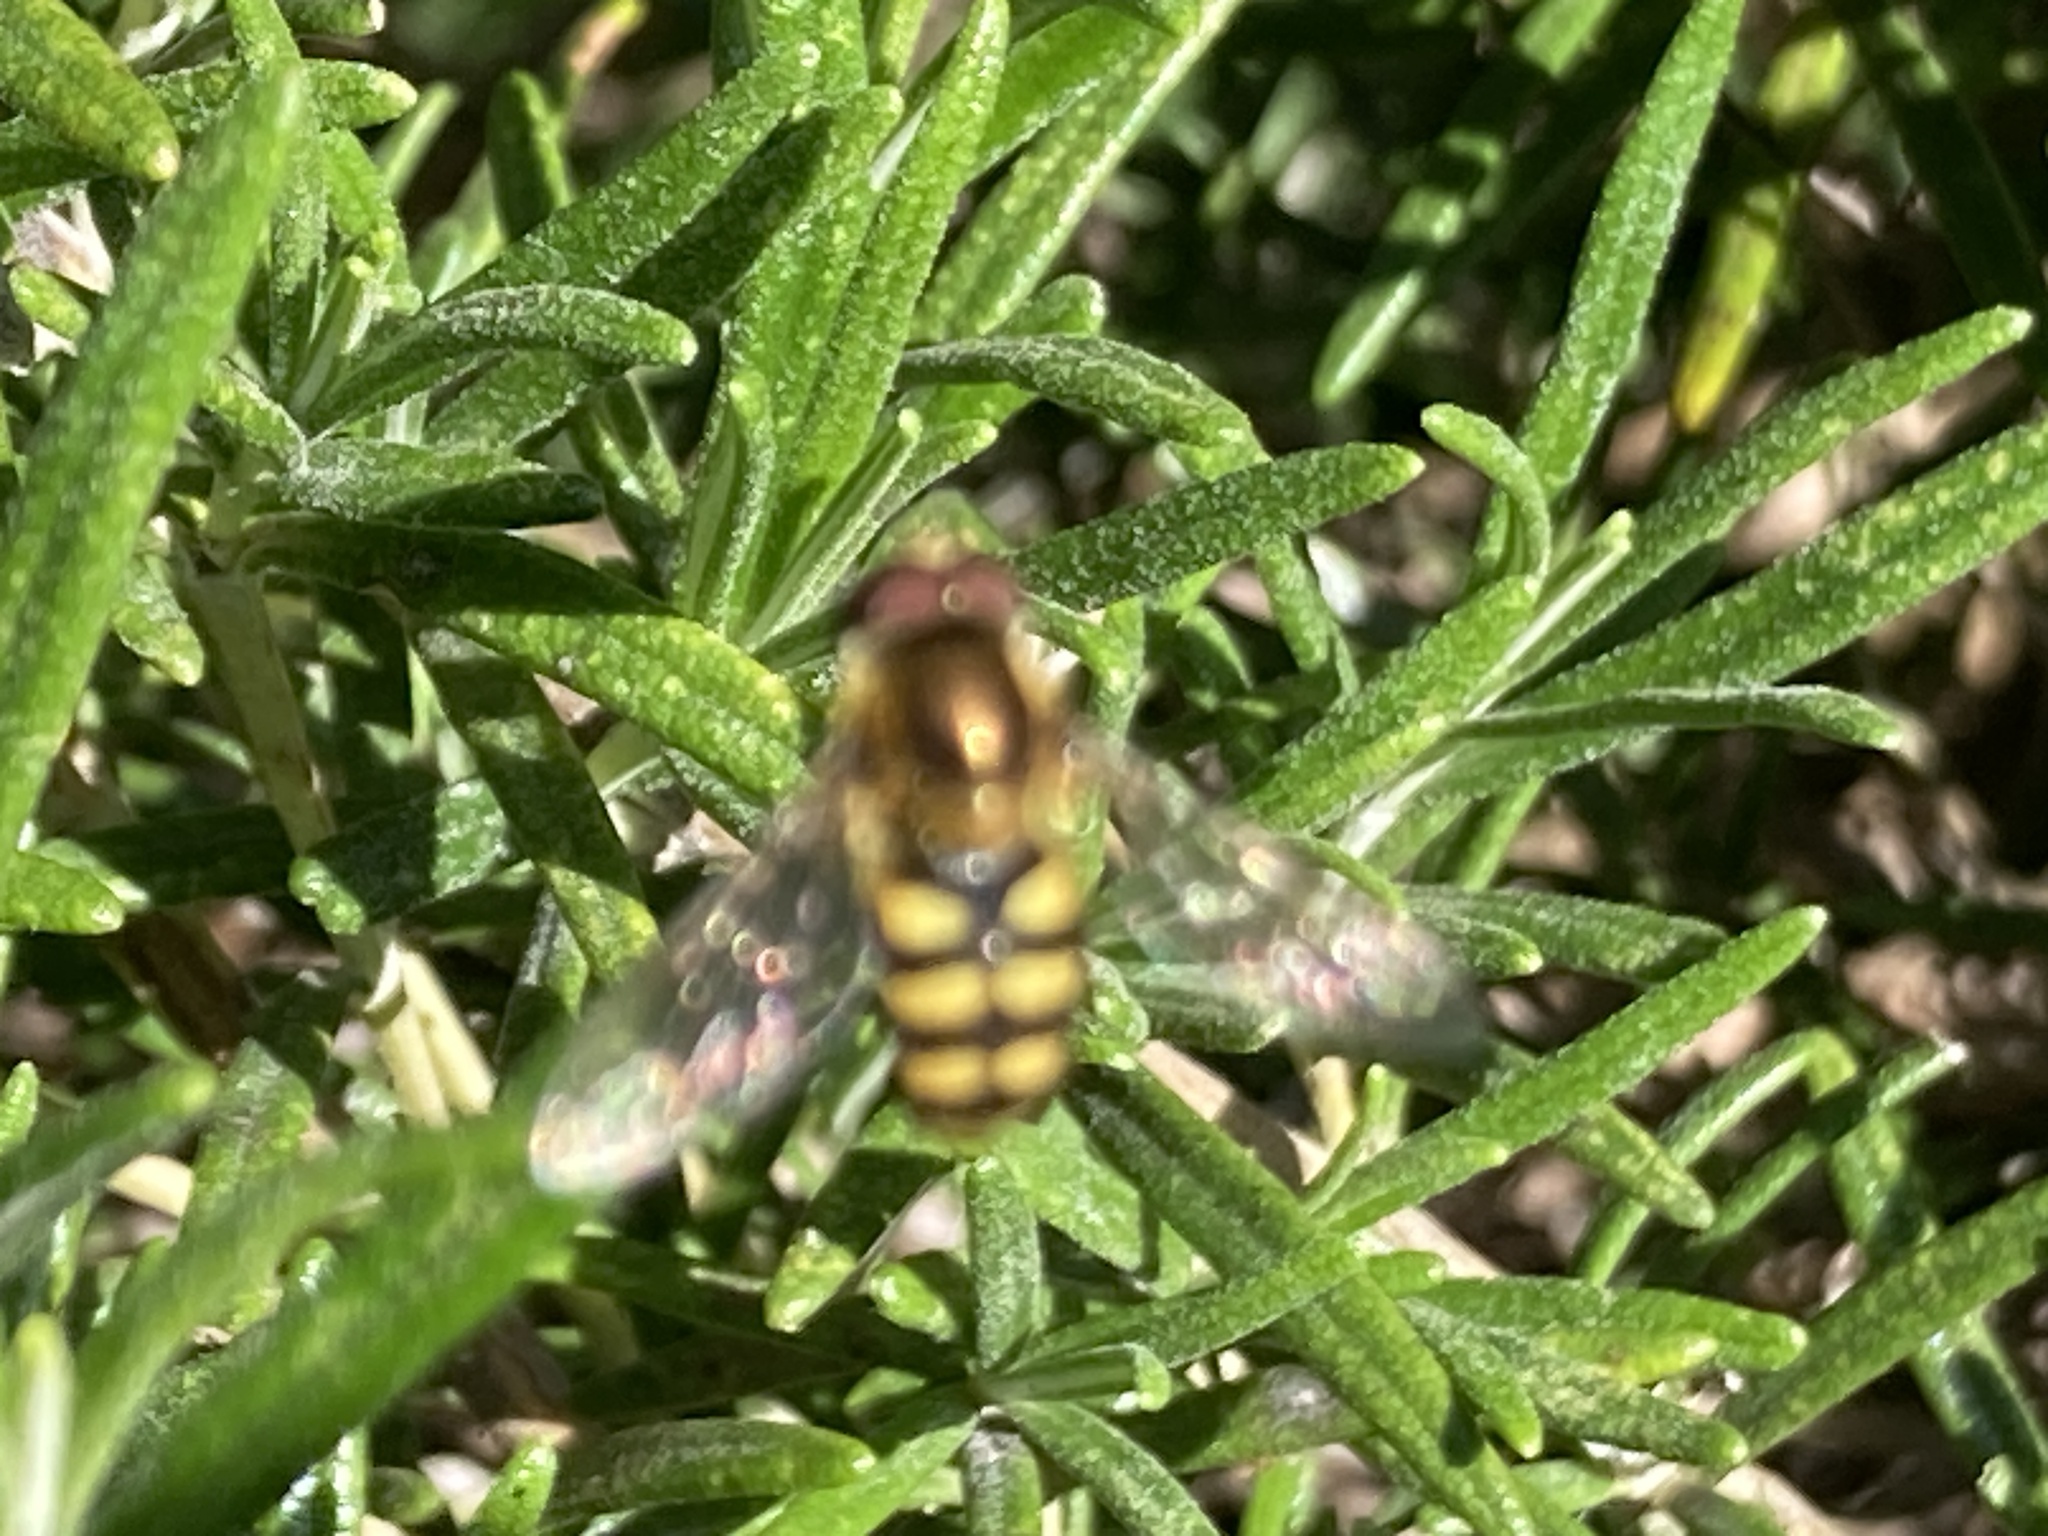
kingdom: Animalia
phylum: Arthropoda
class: Insecta
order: Diptera
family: Syrphidae
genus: Eupeodes
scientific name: Eupeodes
